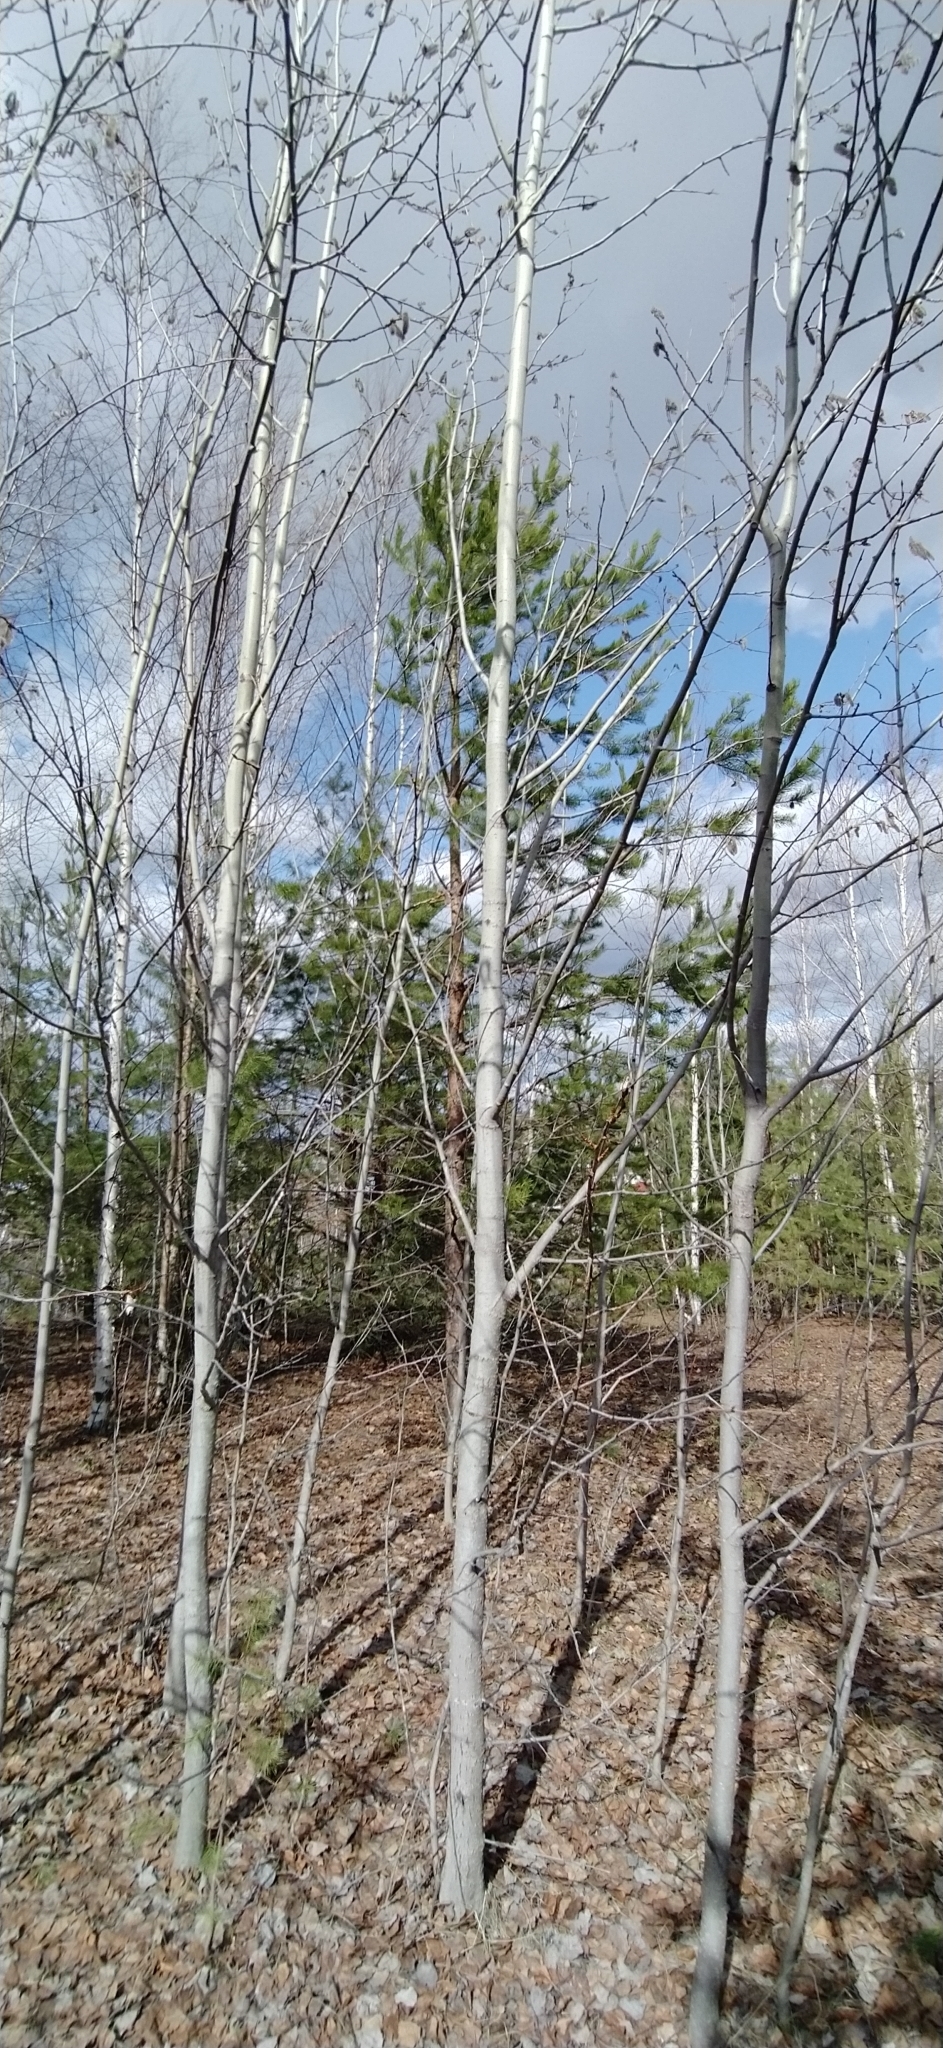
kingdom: Plantae
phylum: Tracheophyta
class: Magnoliopsida
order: Malpighiales
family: Salicaceae
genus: Populus
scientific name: Populus tremula
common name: European aspen
